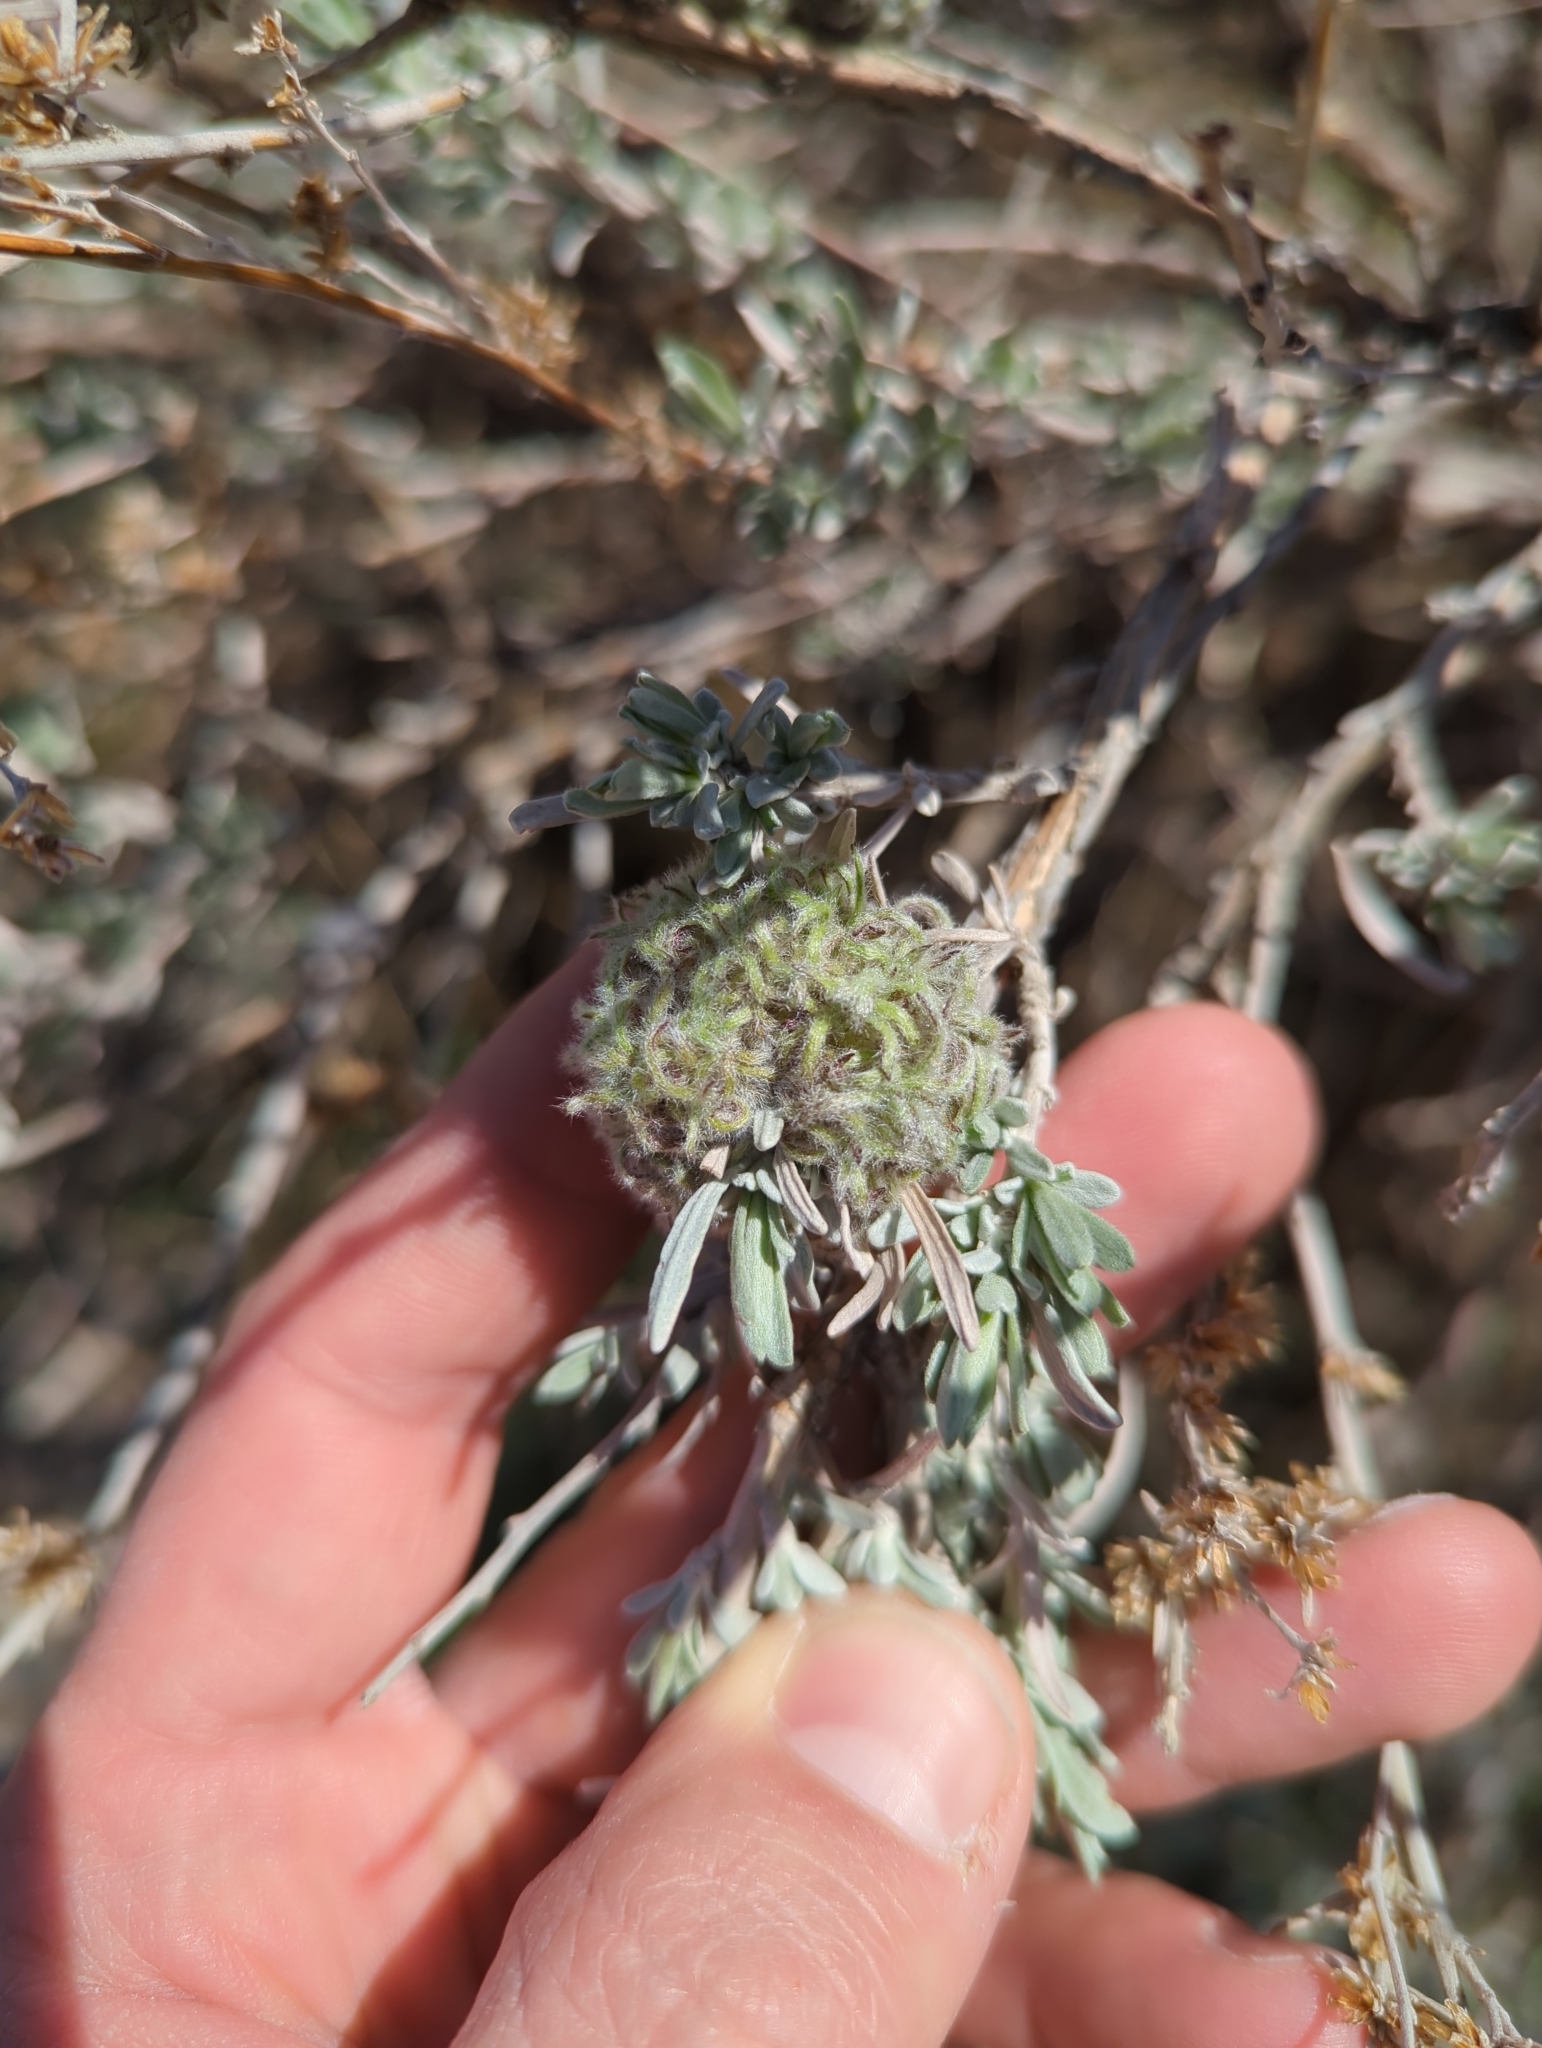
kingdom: Animalia
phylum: Arthropoda
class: Insecta
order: Diptera
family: Cecidomyiidae
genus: Rhopalomyia
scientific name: Rhopalomyia medusirrasa
